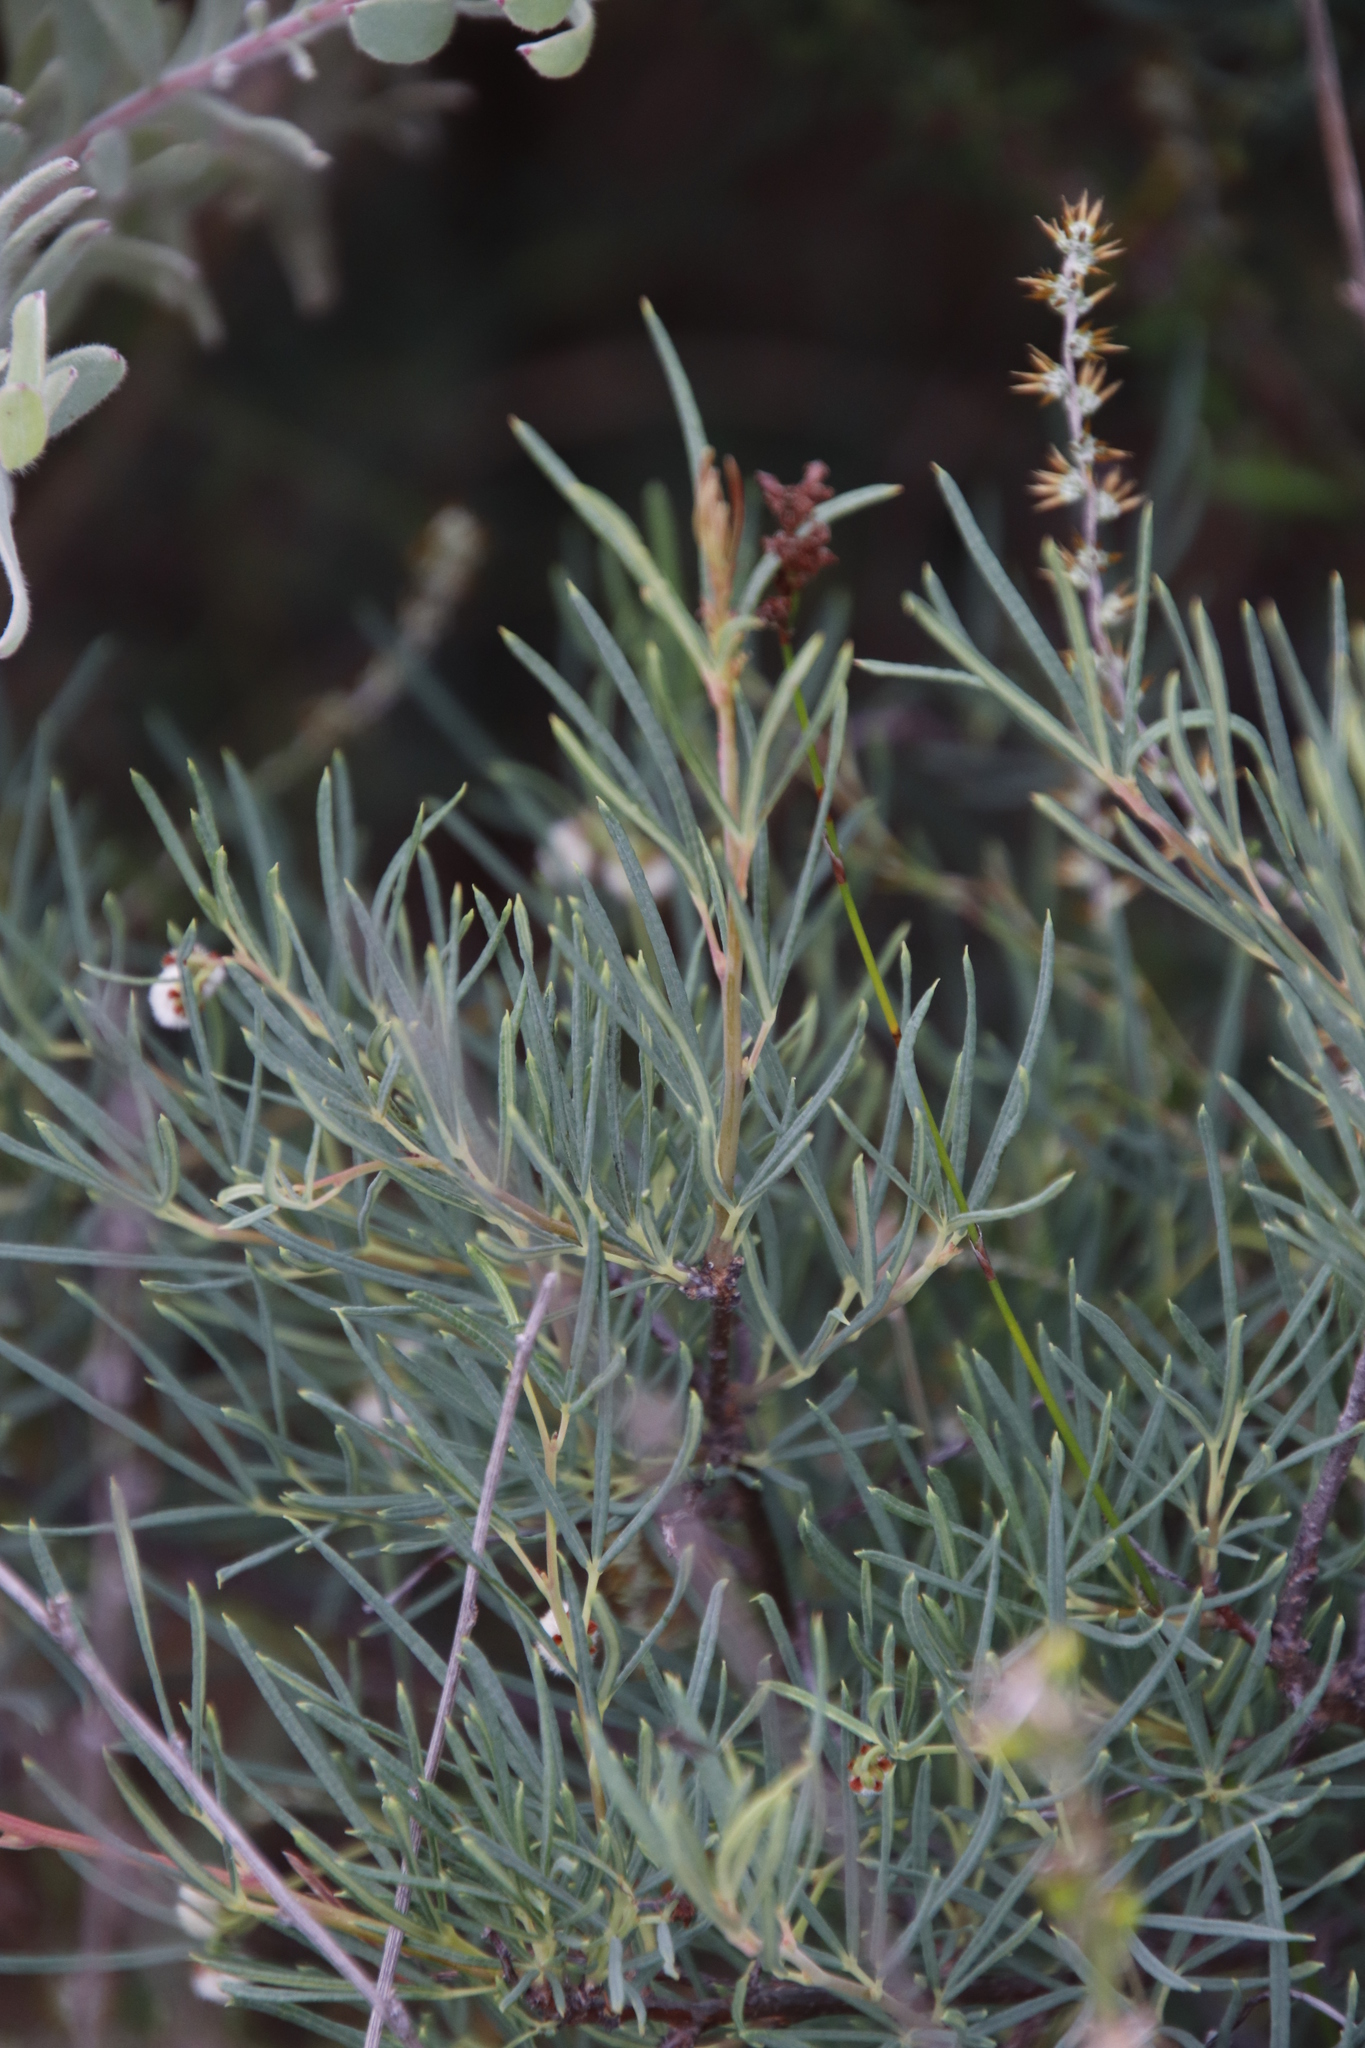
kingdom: Plantae
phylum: Tracheophyta
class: Magnoliopsida
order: Sapindales
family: Anacardiaceae
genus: Searsia
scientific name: Searsia rosmarinifolia
